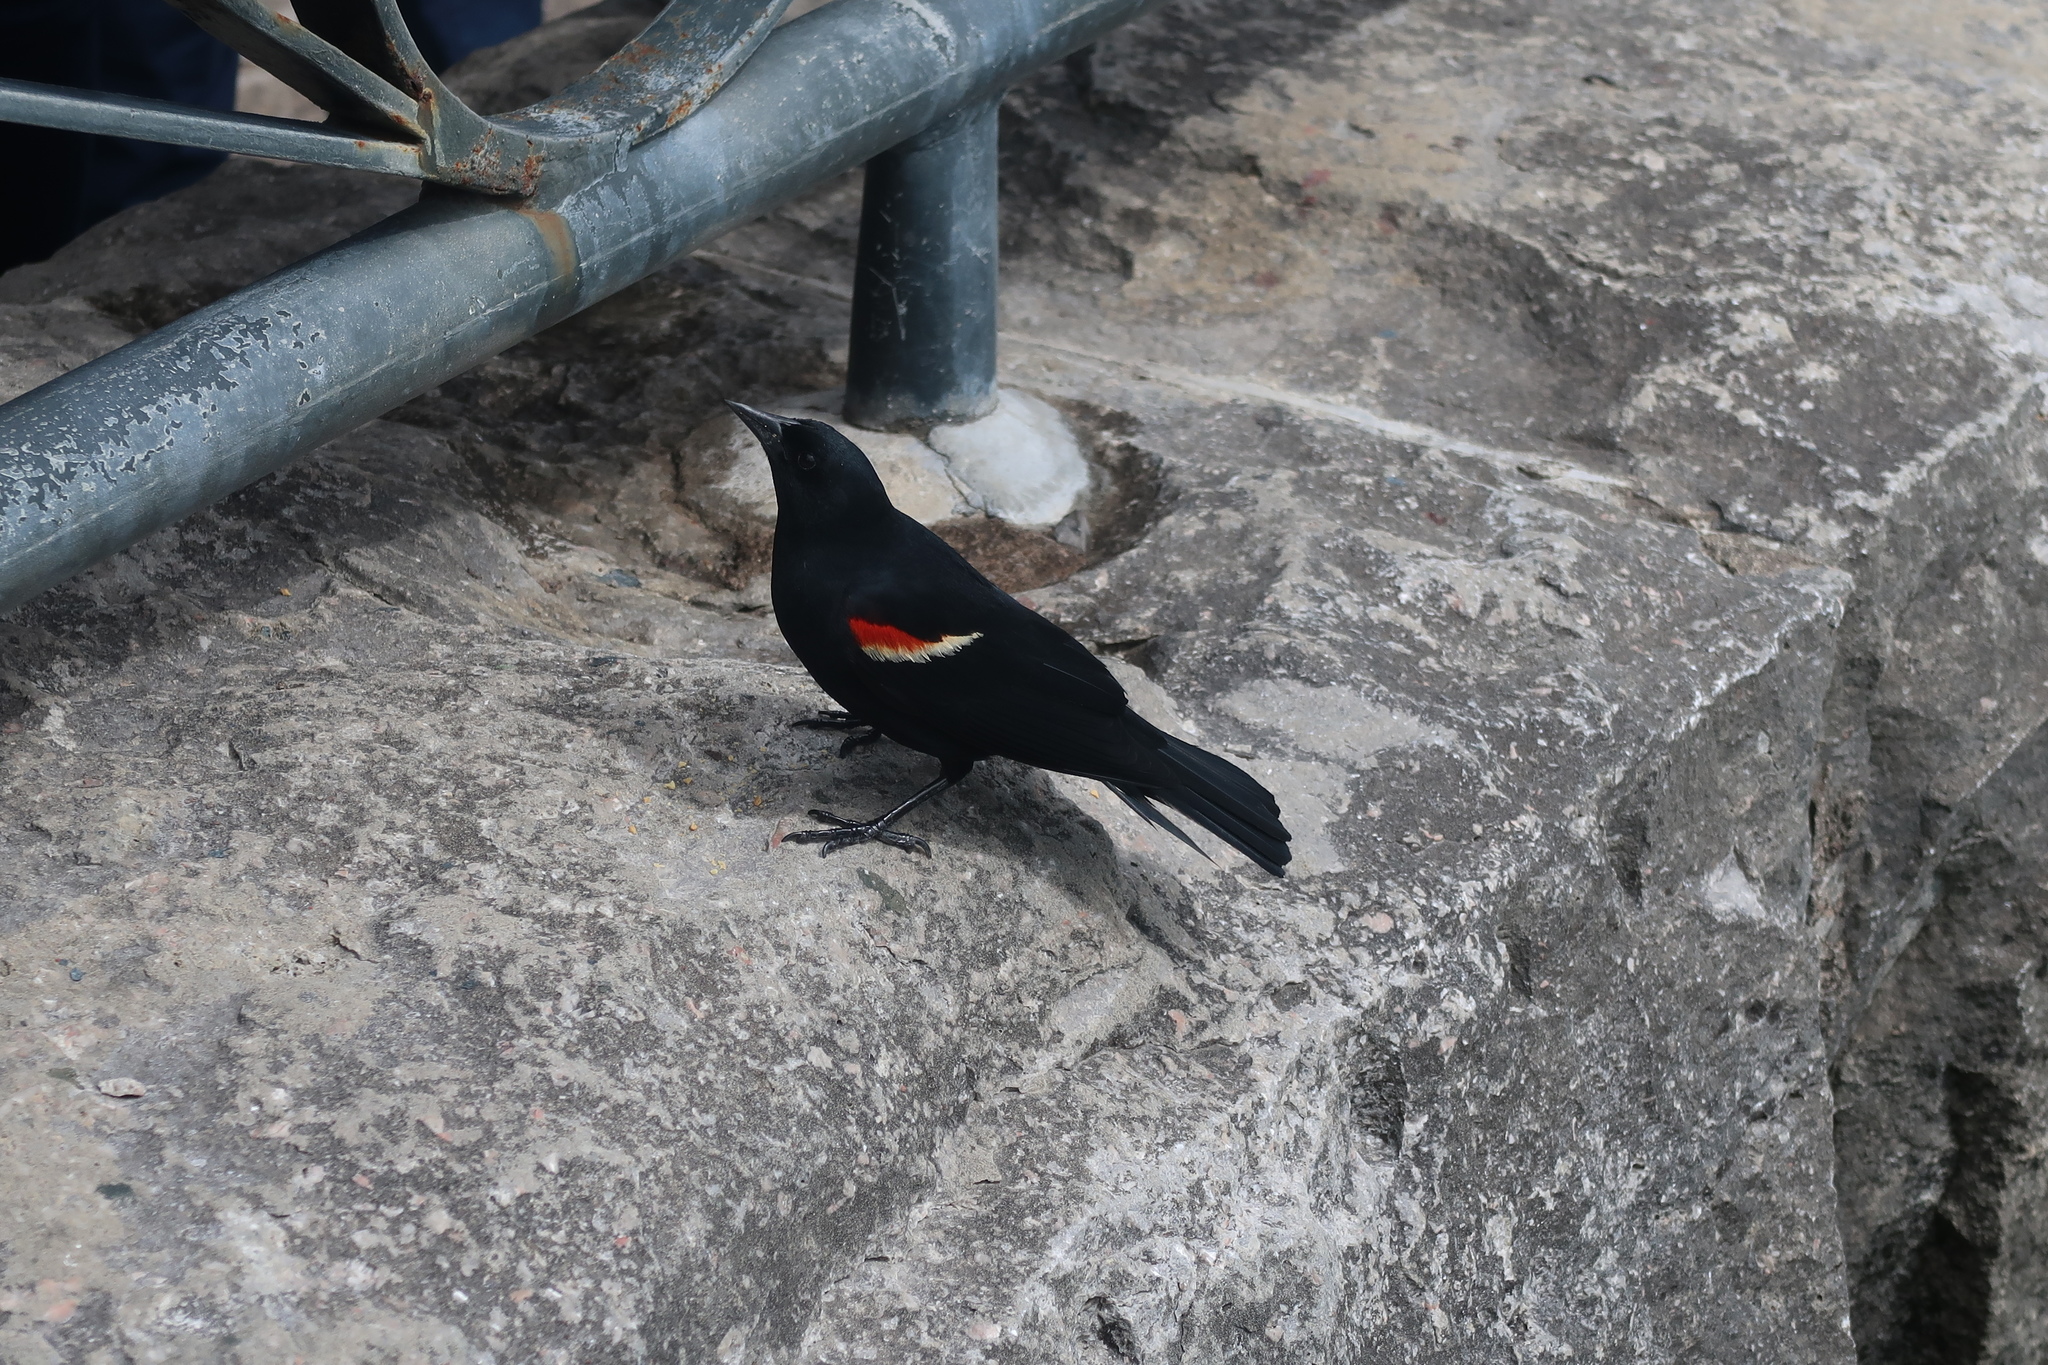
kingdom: Animalia
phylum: Chordata
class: Aves
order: Passeriformes
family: Icteridae
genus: Agelaius
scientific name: Agelaius phoeniceus
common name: Red-winged blackbird
